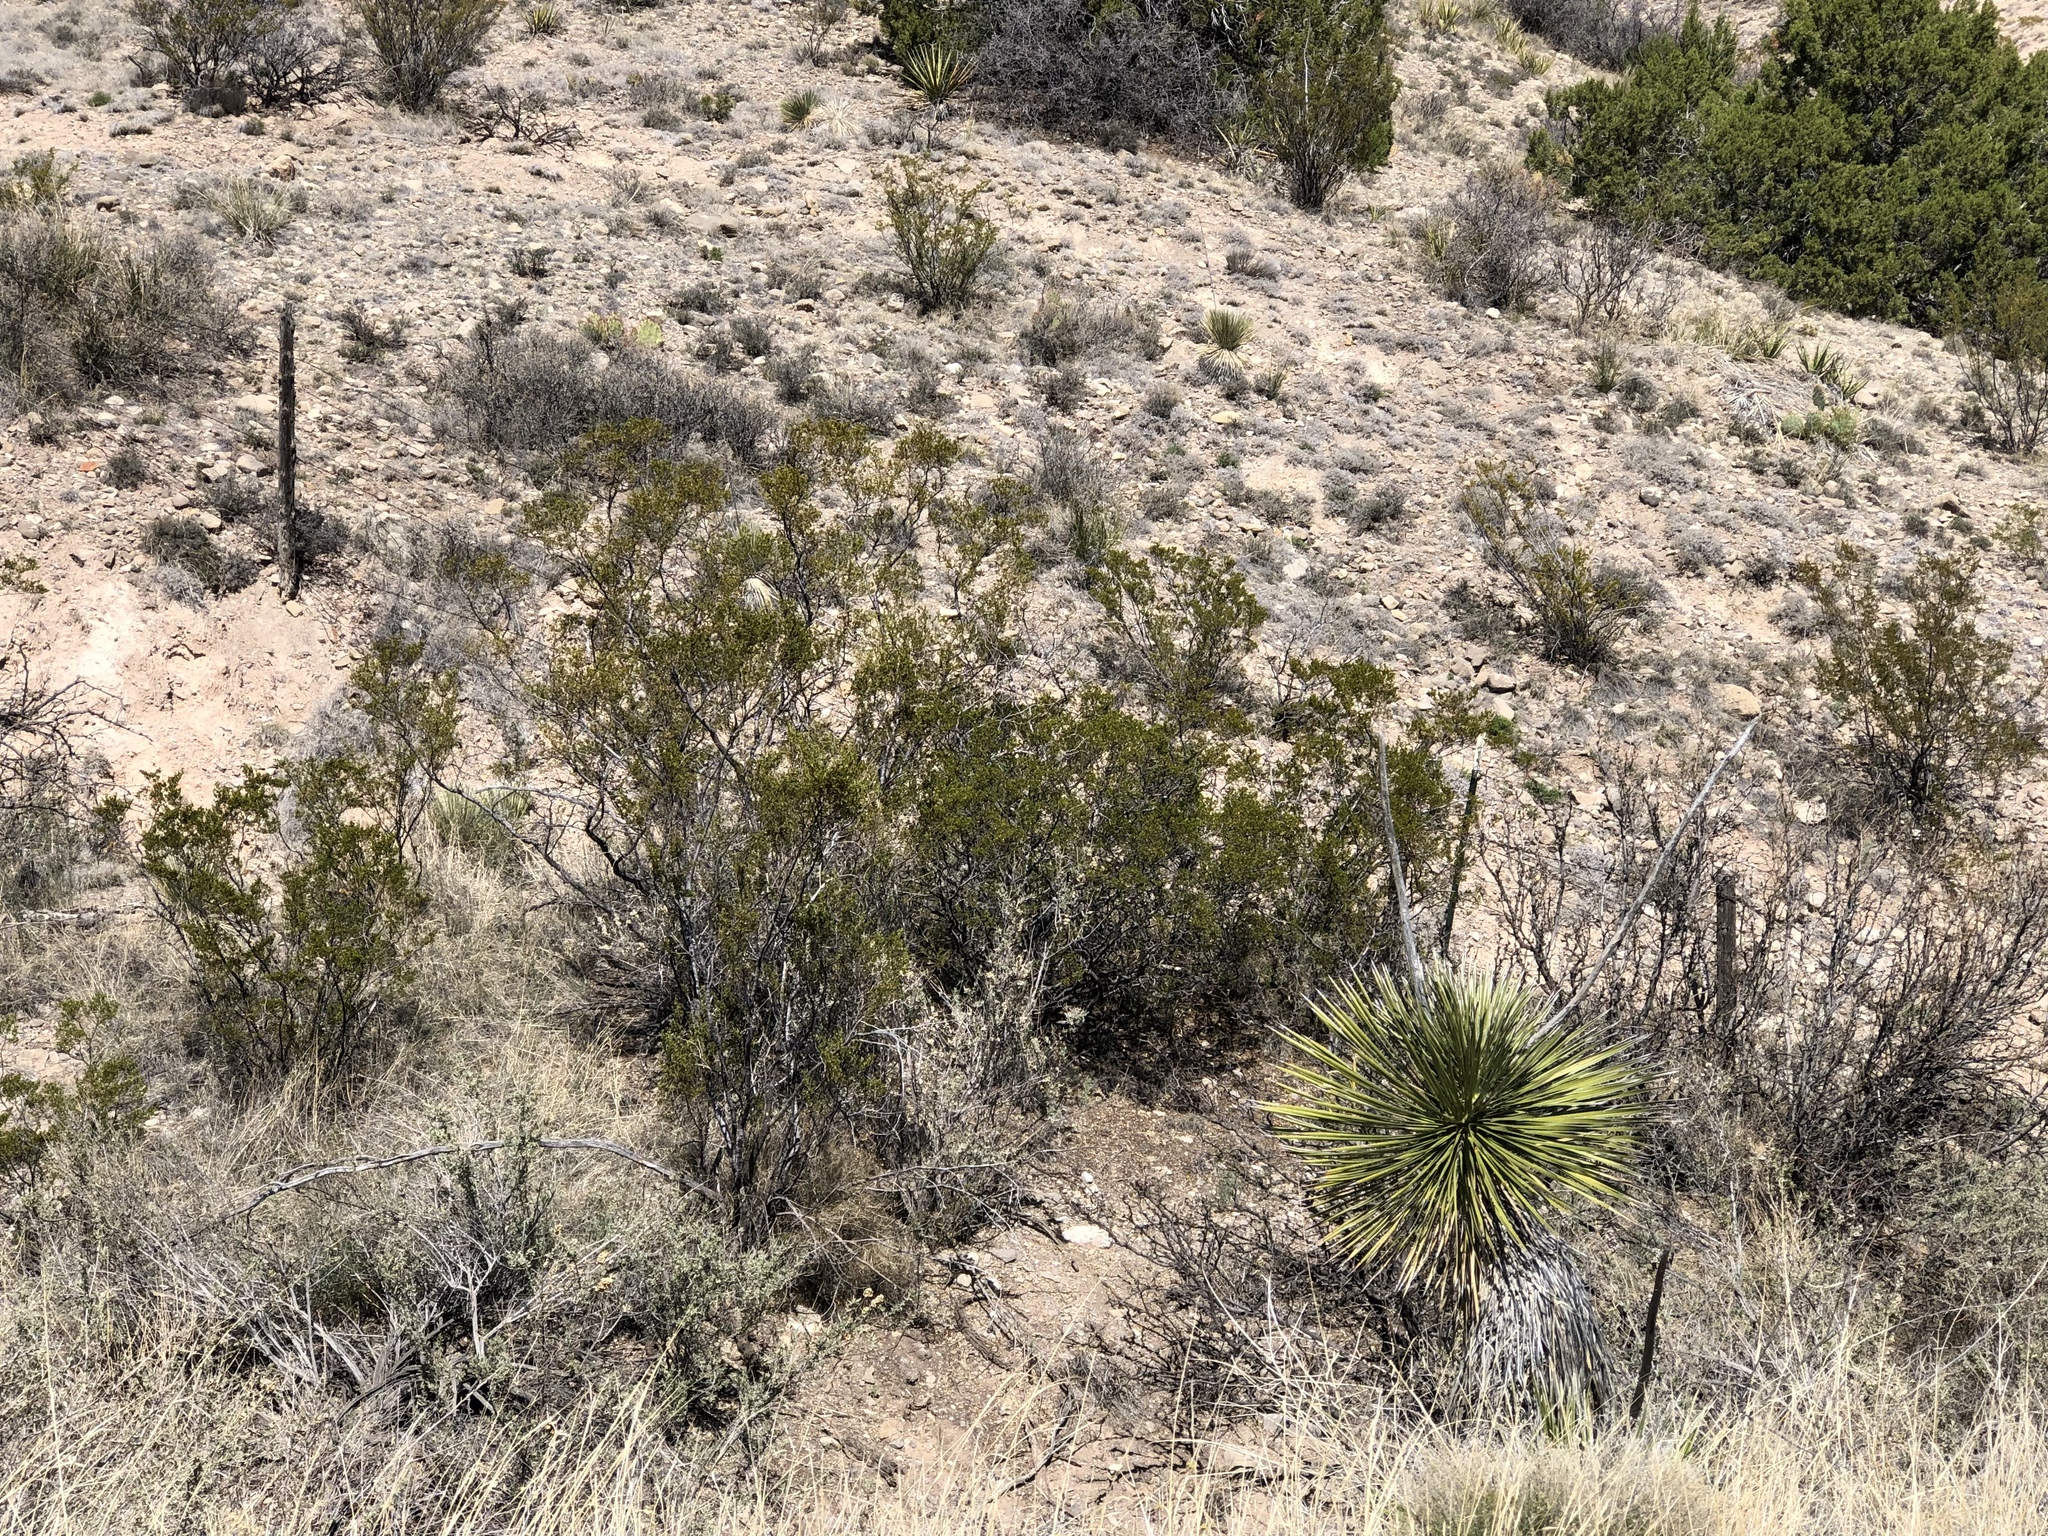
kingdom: Plantae
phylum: Tracheophyta
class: Magnoliopsida
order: Zygophyllales
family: Zygophyllaceae
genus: Larrea
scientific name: Larrea tridentata
